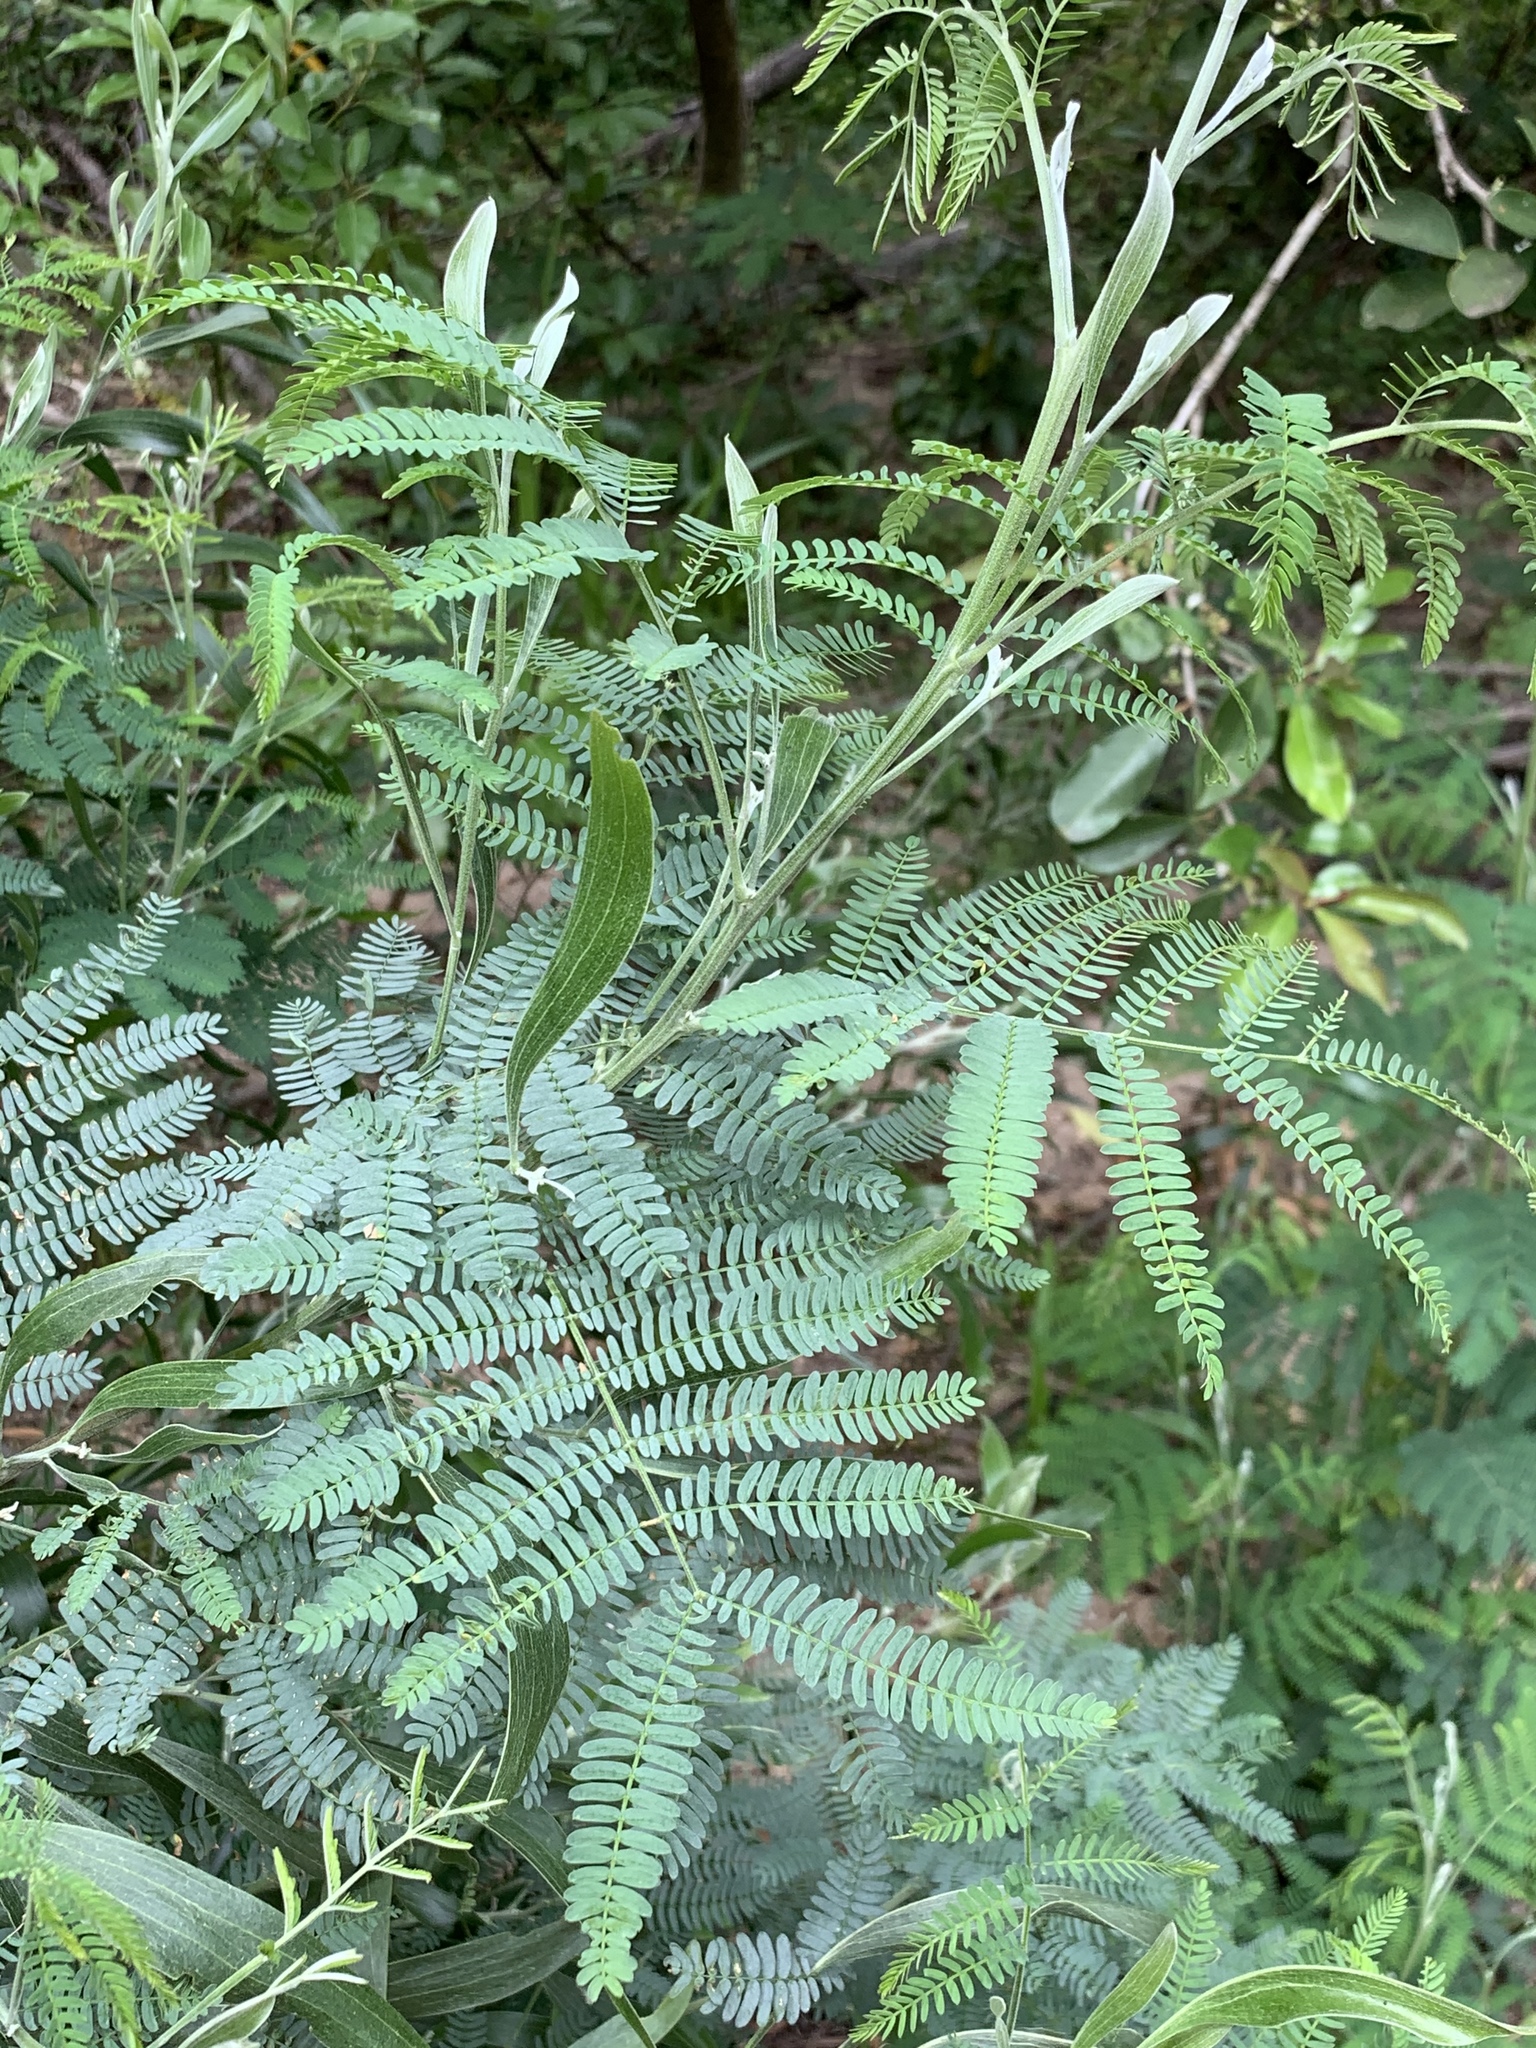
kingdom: Plantae
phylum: Tracheophyta
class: Magnoliopsida
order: Fabales
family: Fabaceae
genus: Acacia
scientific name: Acacia melanoxylon
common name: Blackwood
